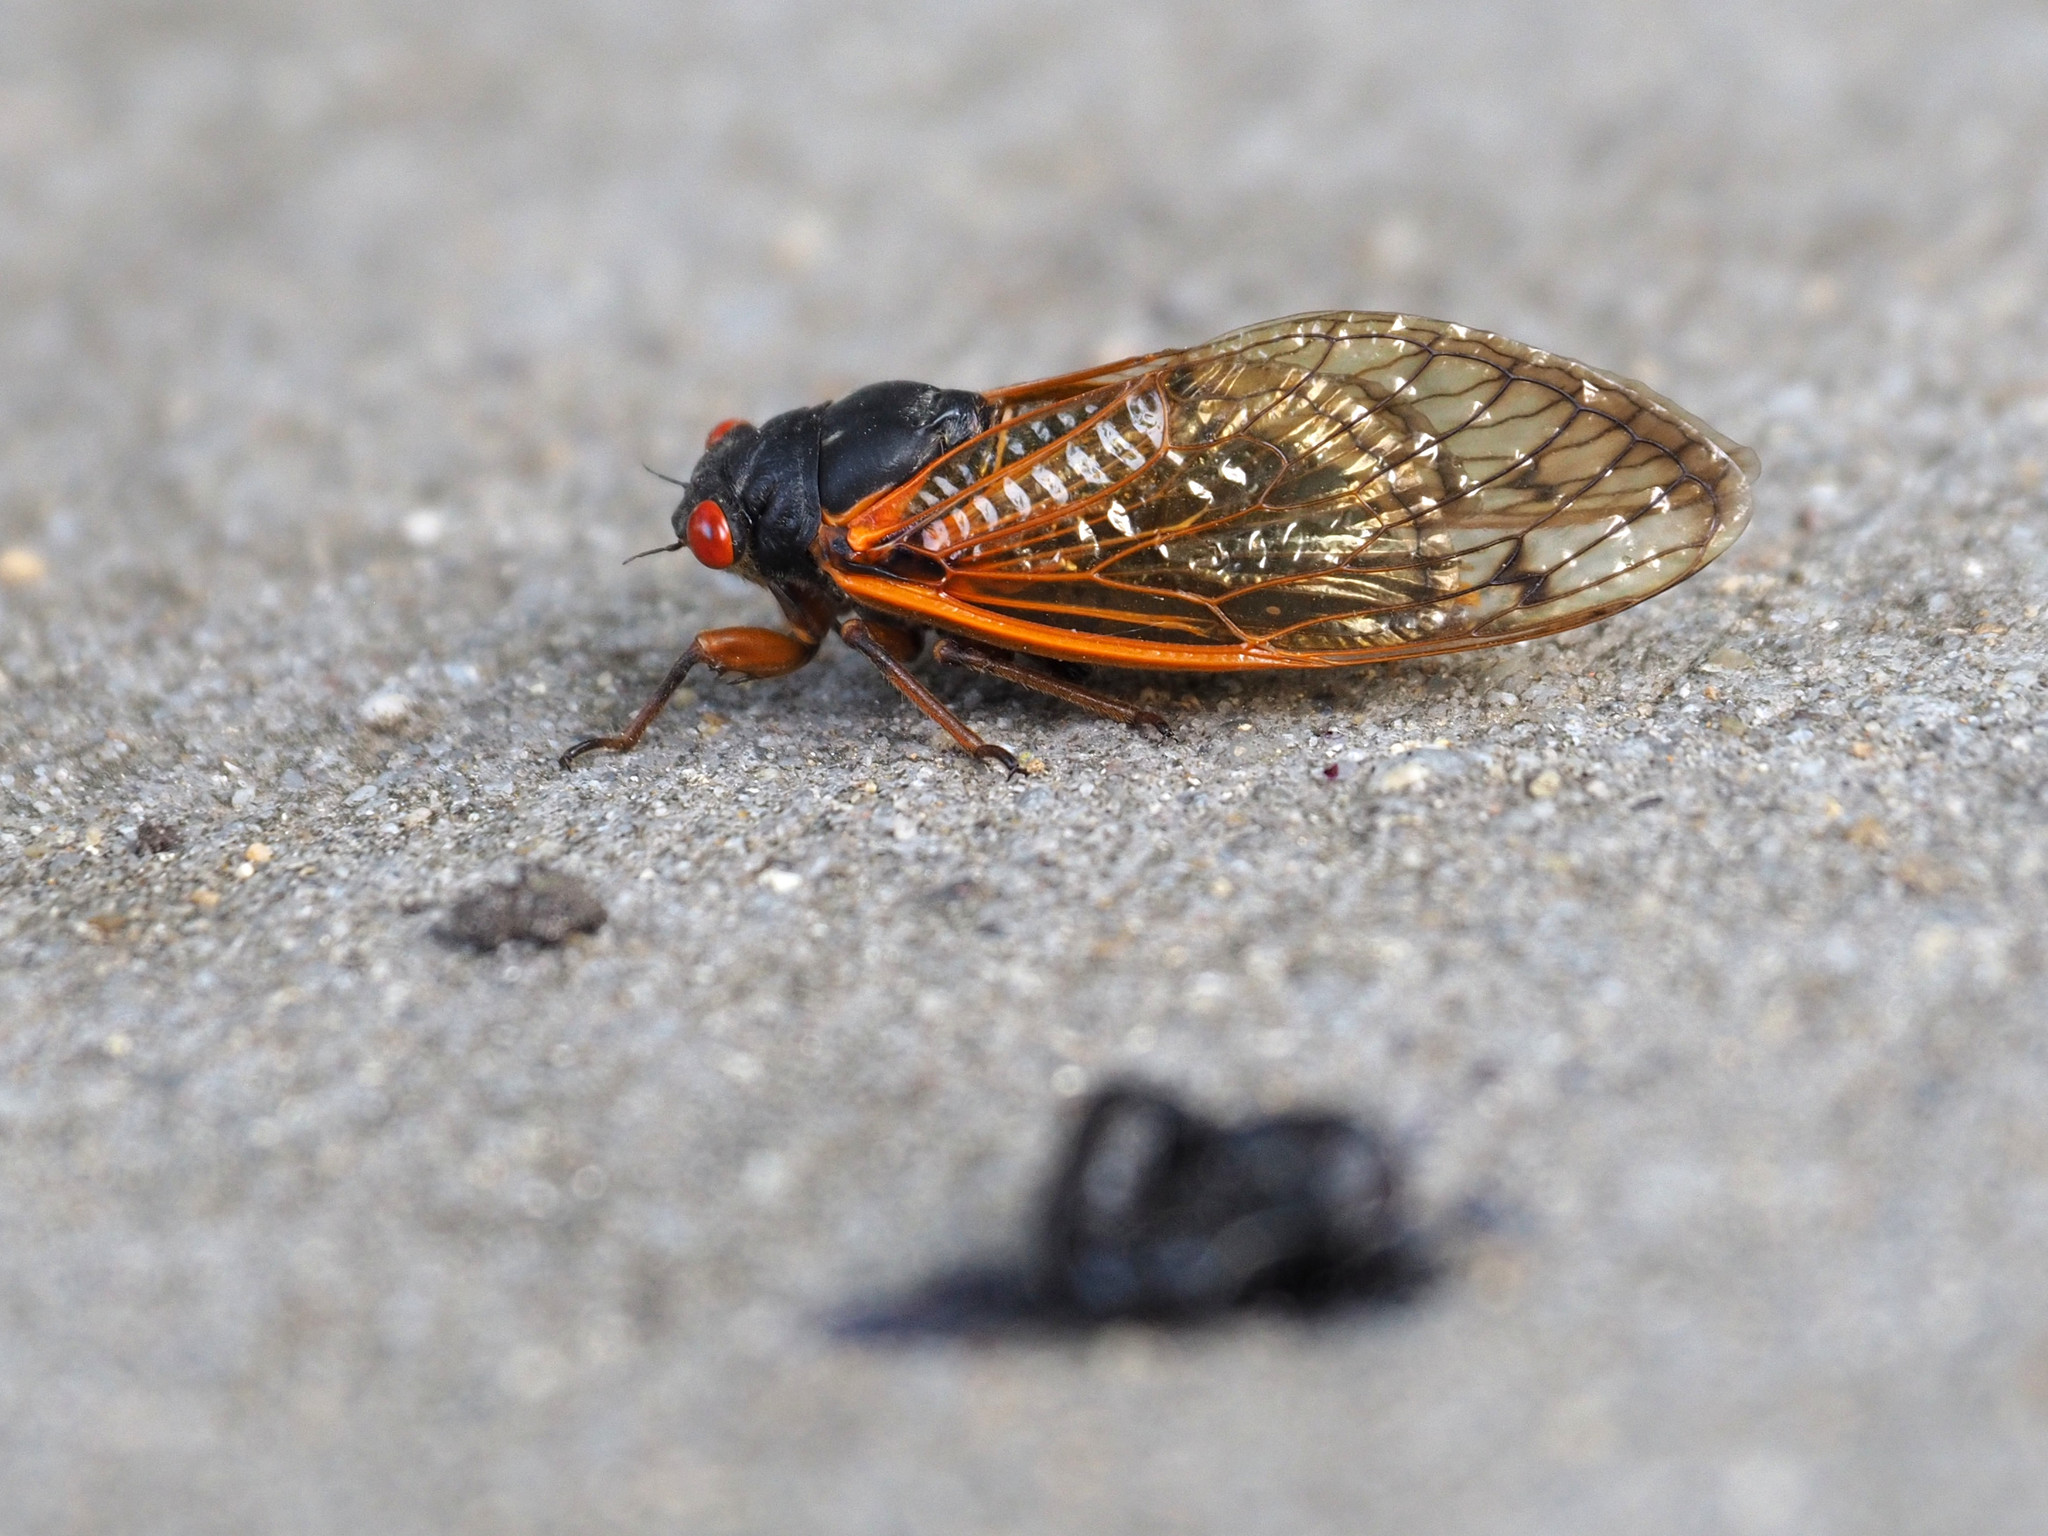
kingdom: Animalia
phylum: Arthropoda
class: Insecta
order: Hemiptera
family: Cicadidae
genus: Magicicada
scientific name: Magicicada cassini
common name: Cassin's 17-year cicada
